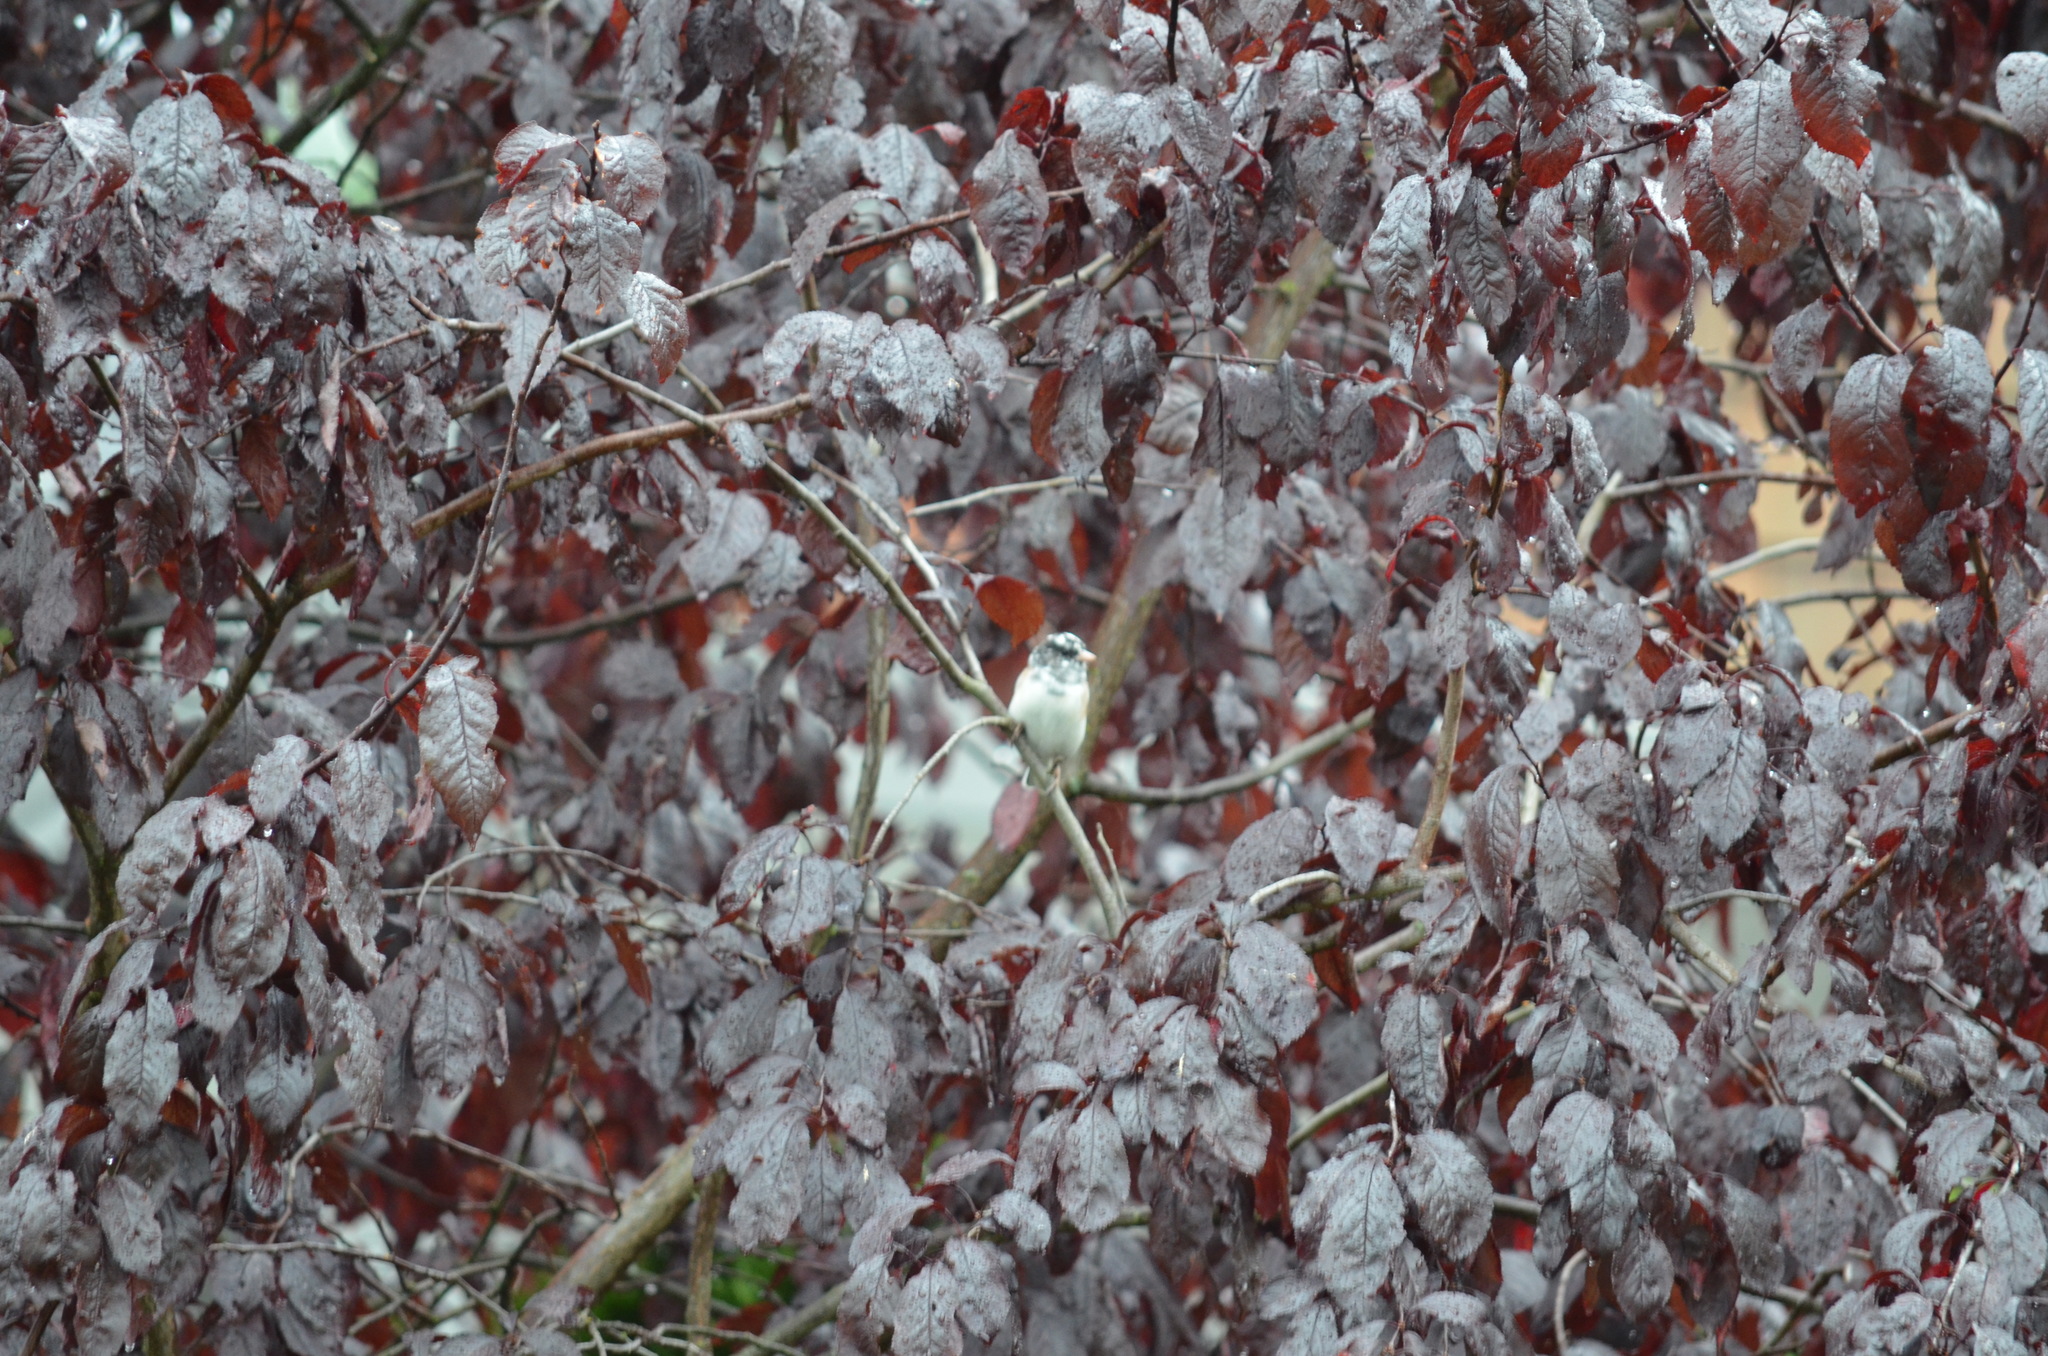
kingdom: Animalia
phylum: Chordata
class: Aves
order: Passeriformes
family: Passerellidae
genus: Junco
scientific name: Junco hyemalis
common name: Dark-eyed junco
